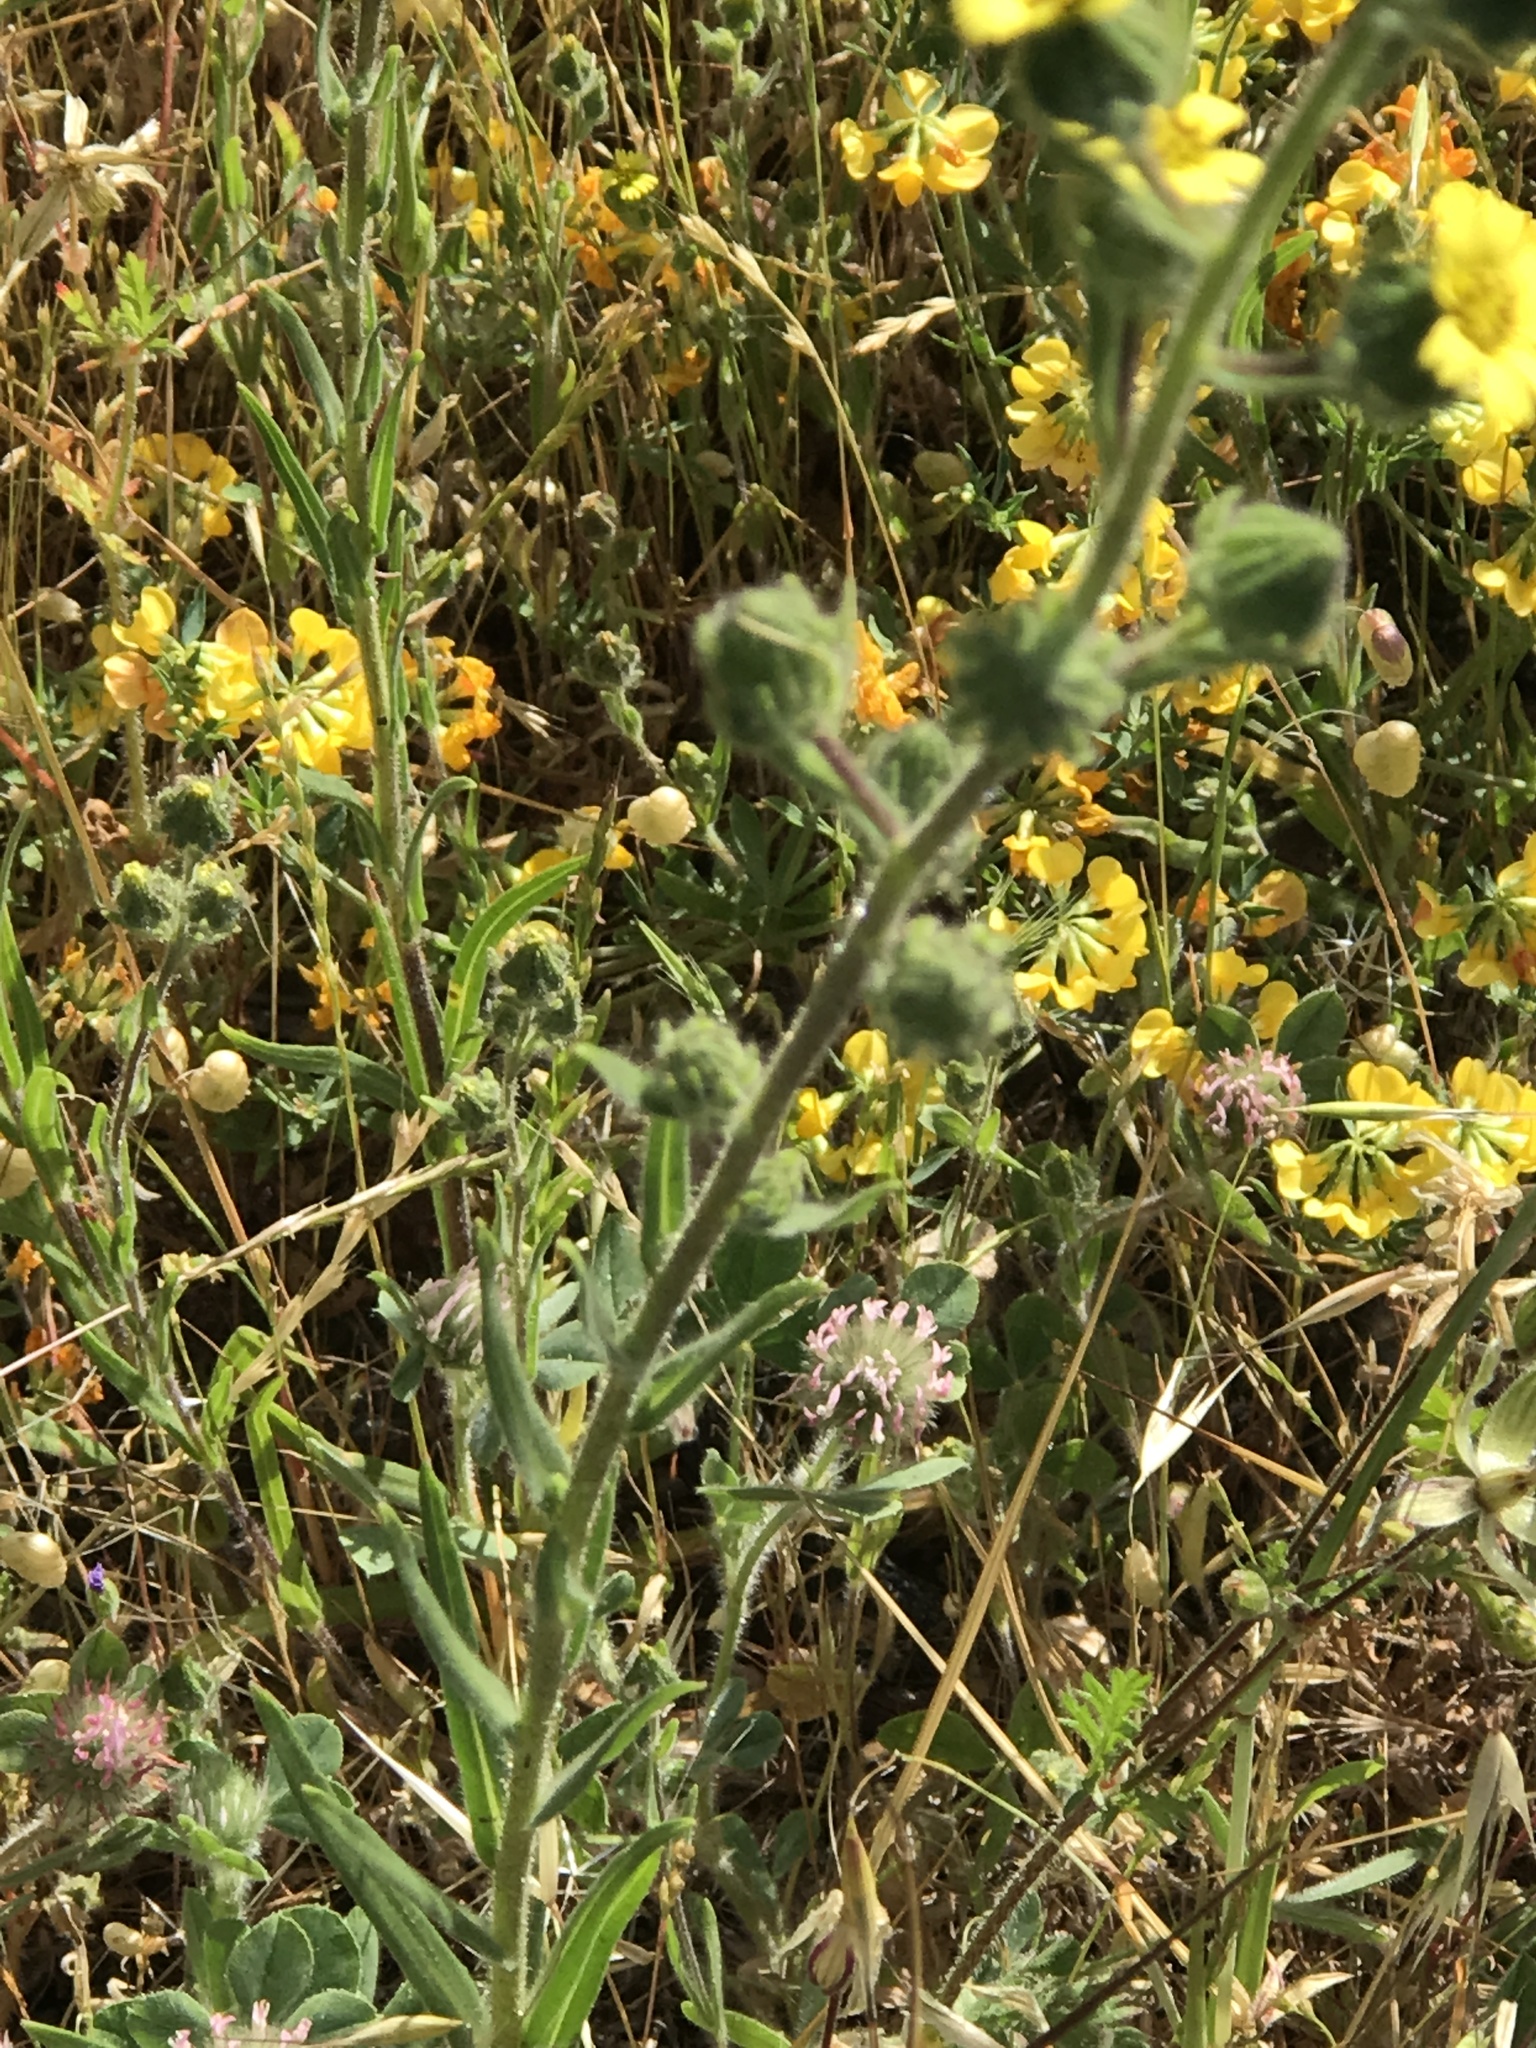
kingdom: Plantae
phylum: Tracheophyta
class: Magnoliopsida
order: Asterales
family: Asteraceae
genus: Madia
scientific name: Madia sativa
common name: Coast tarweed
